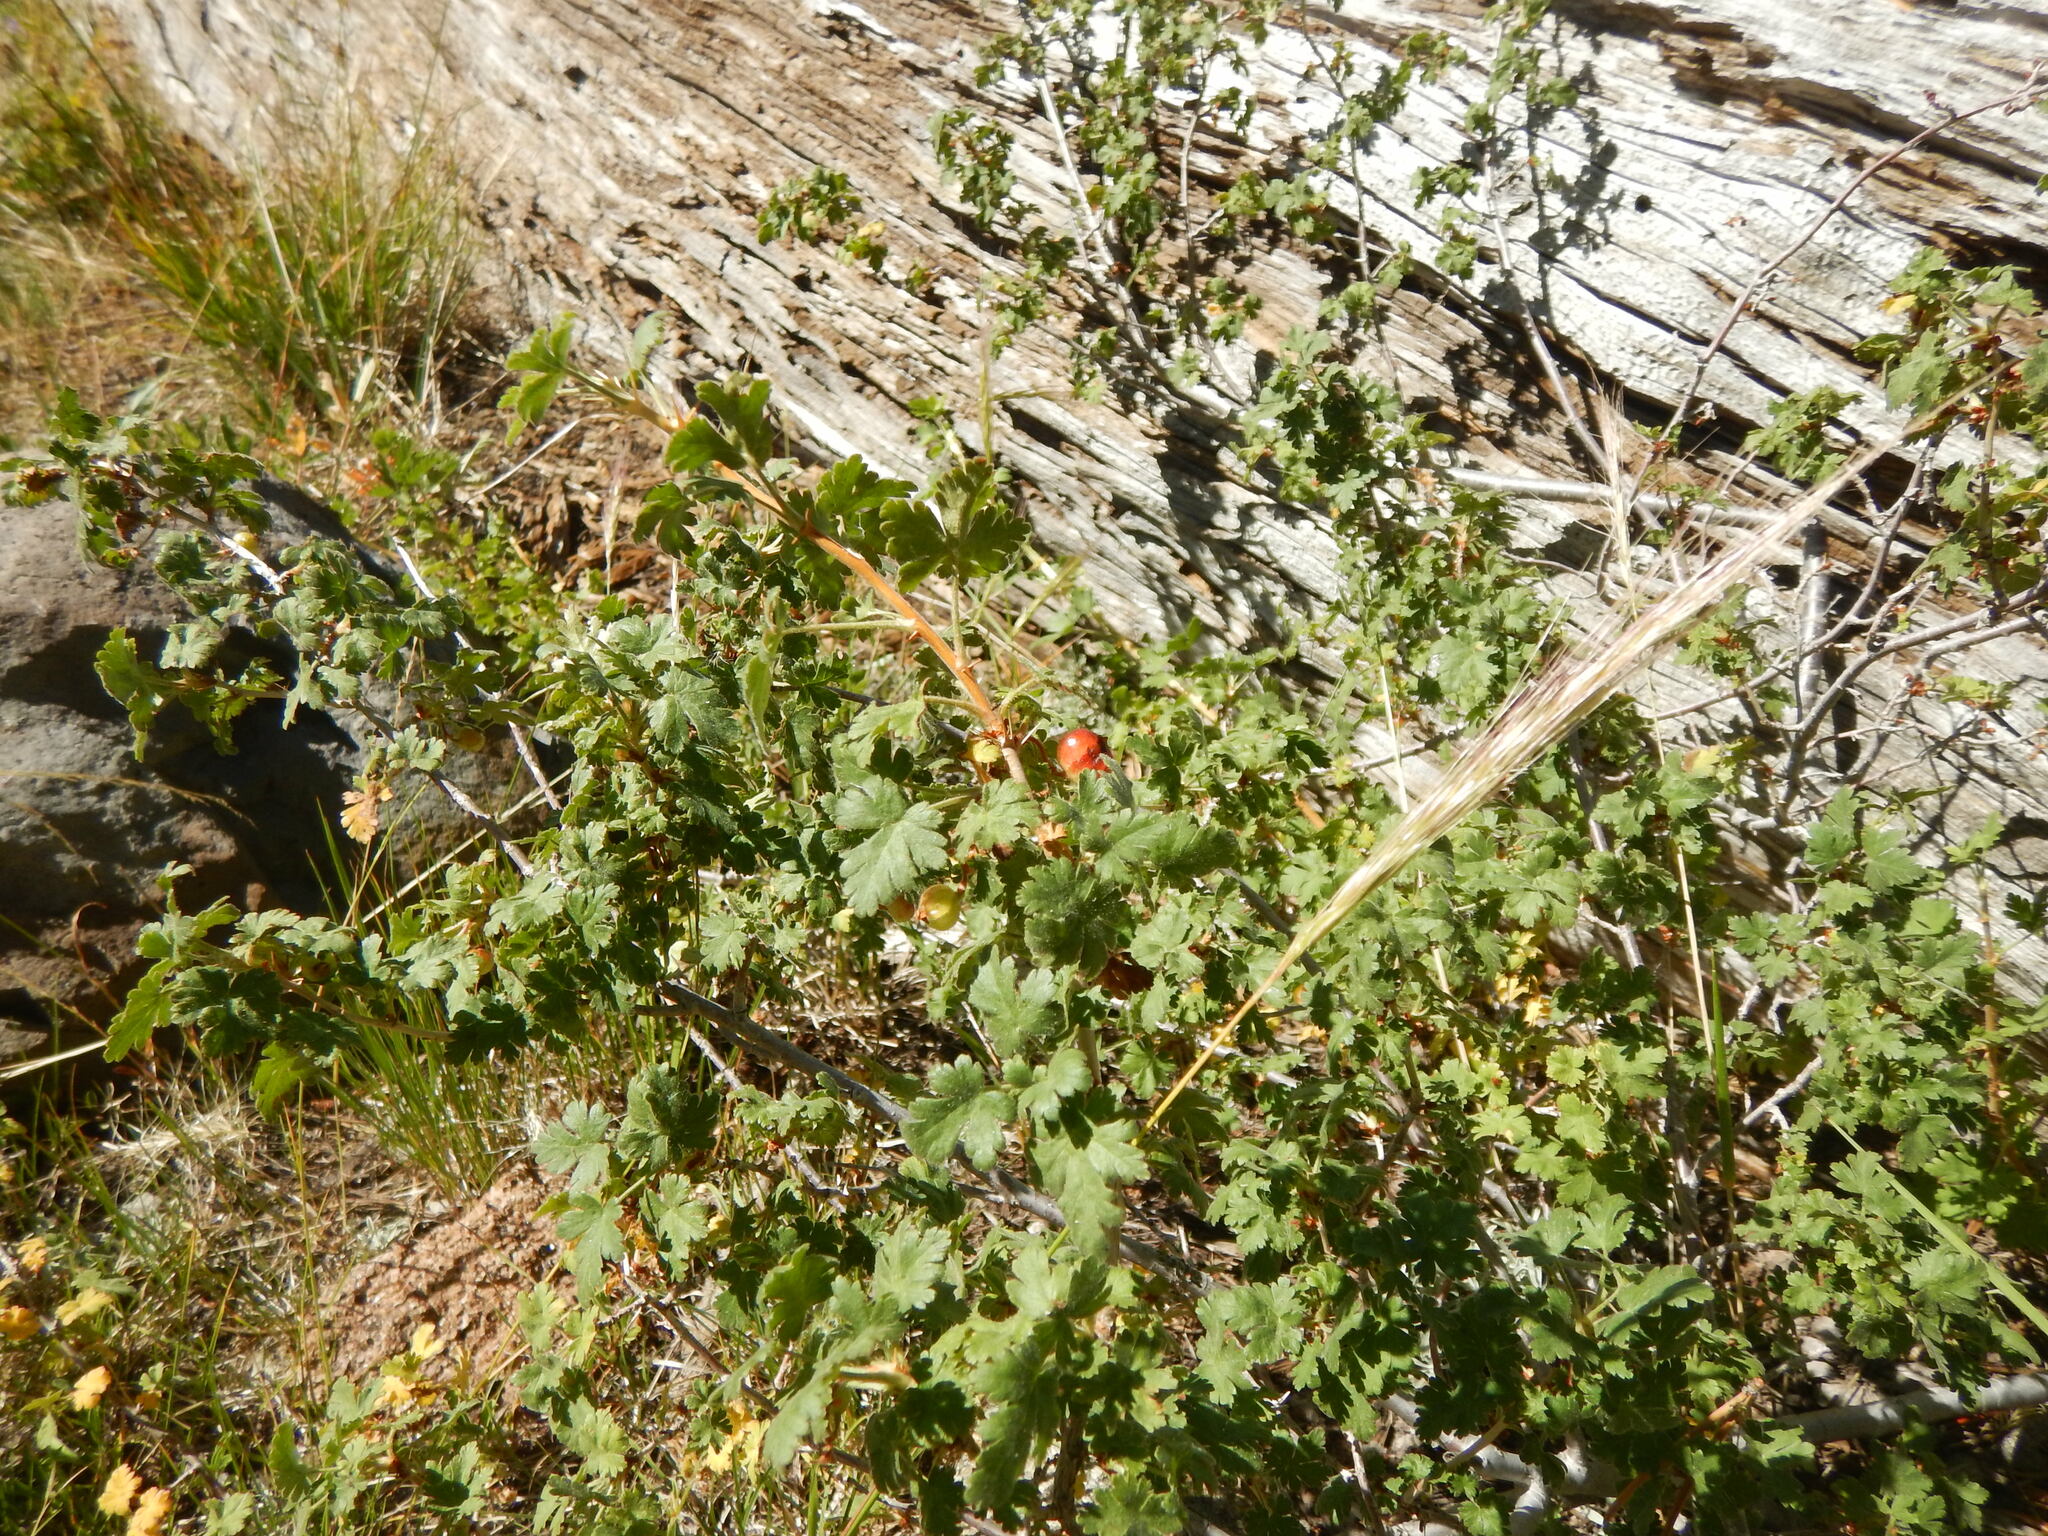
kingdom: Plantae
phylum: Tracheophyta
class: Magnoliopsida
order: Saxifragales
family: Grossulariaceae
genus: Ribes
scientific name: Ribes montigenum
